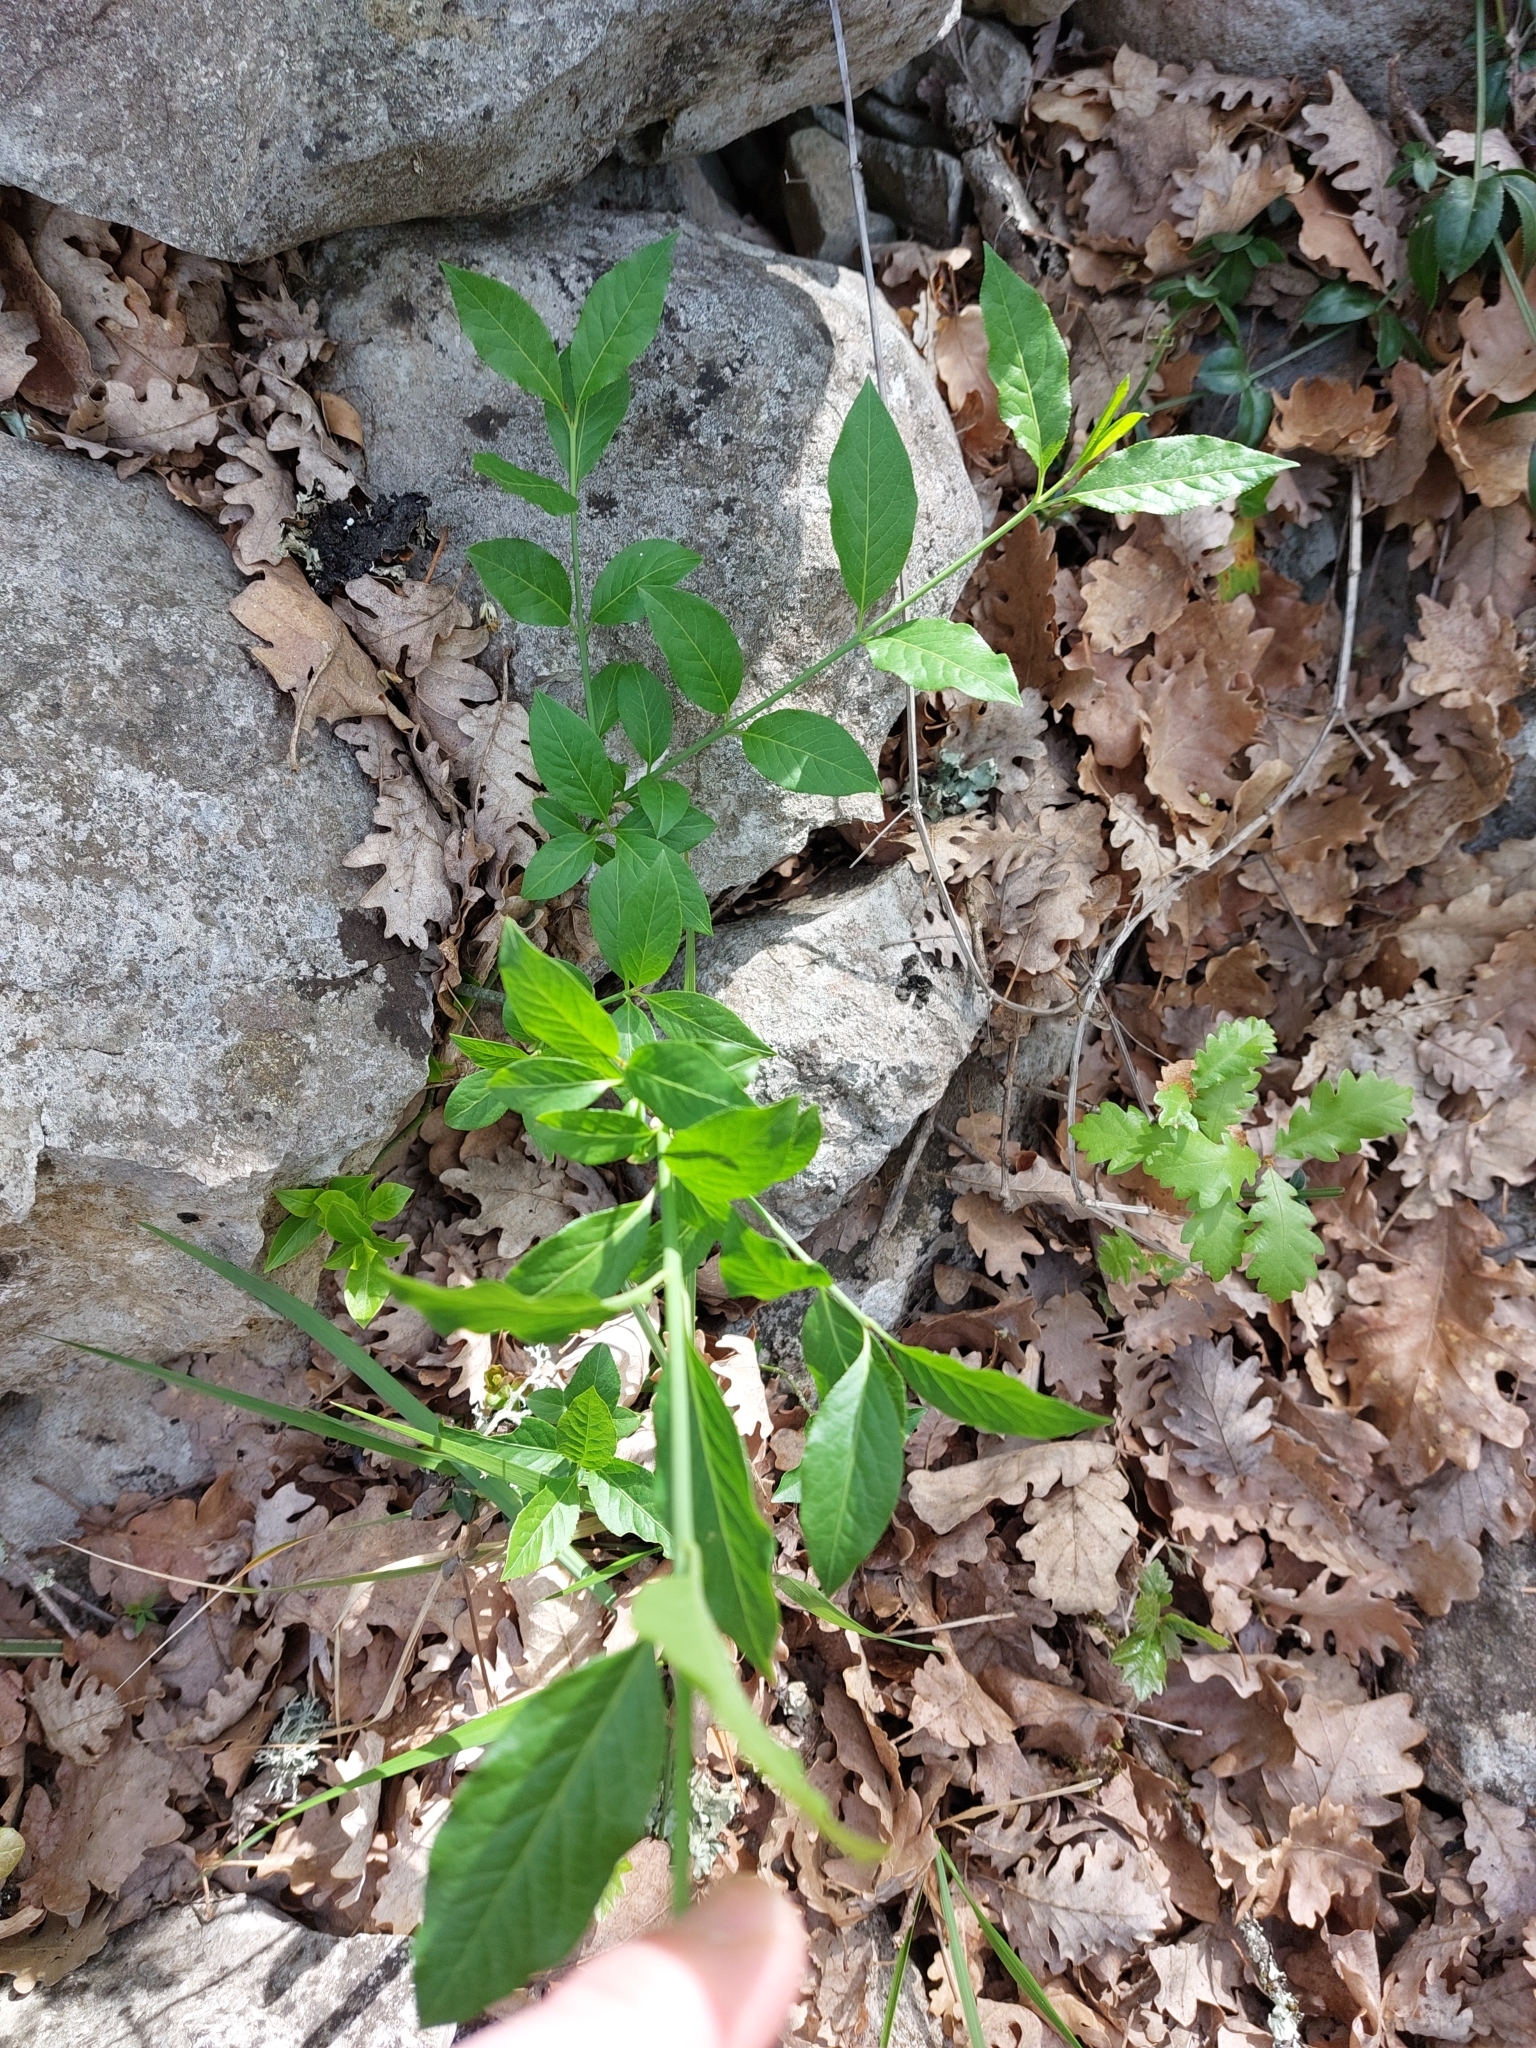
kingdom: Plantae
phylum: Tracheophyta
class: Magnoliopsida
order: Celastrales
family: Celastraceae
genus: Euonymus
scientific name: Euonymus europaeus
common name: Spindle
